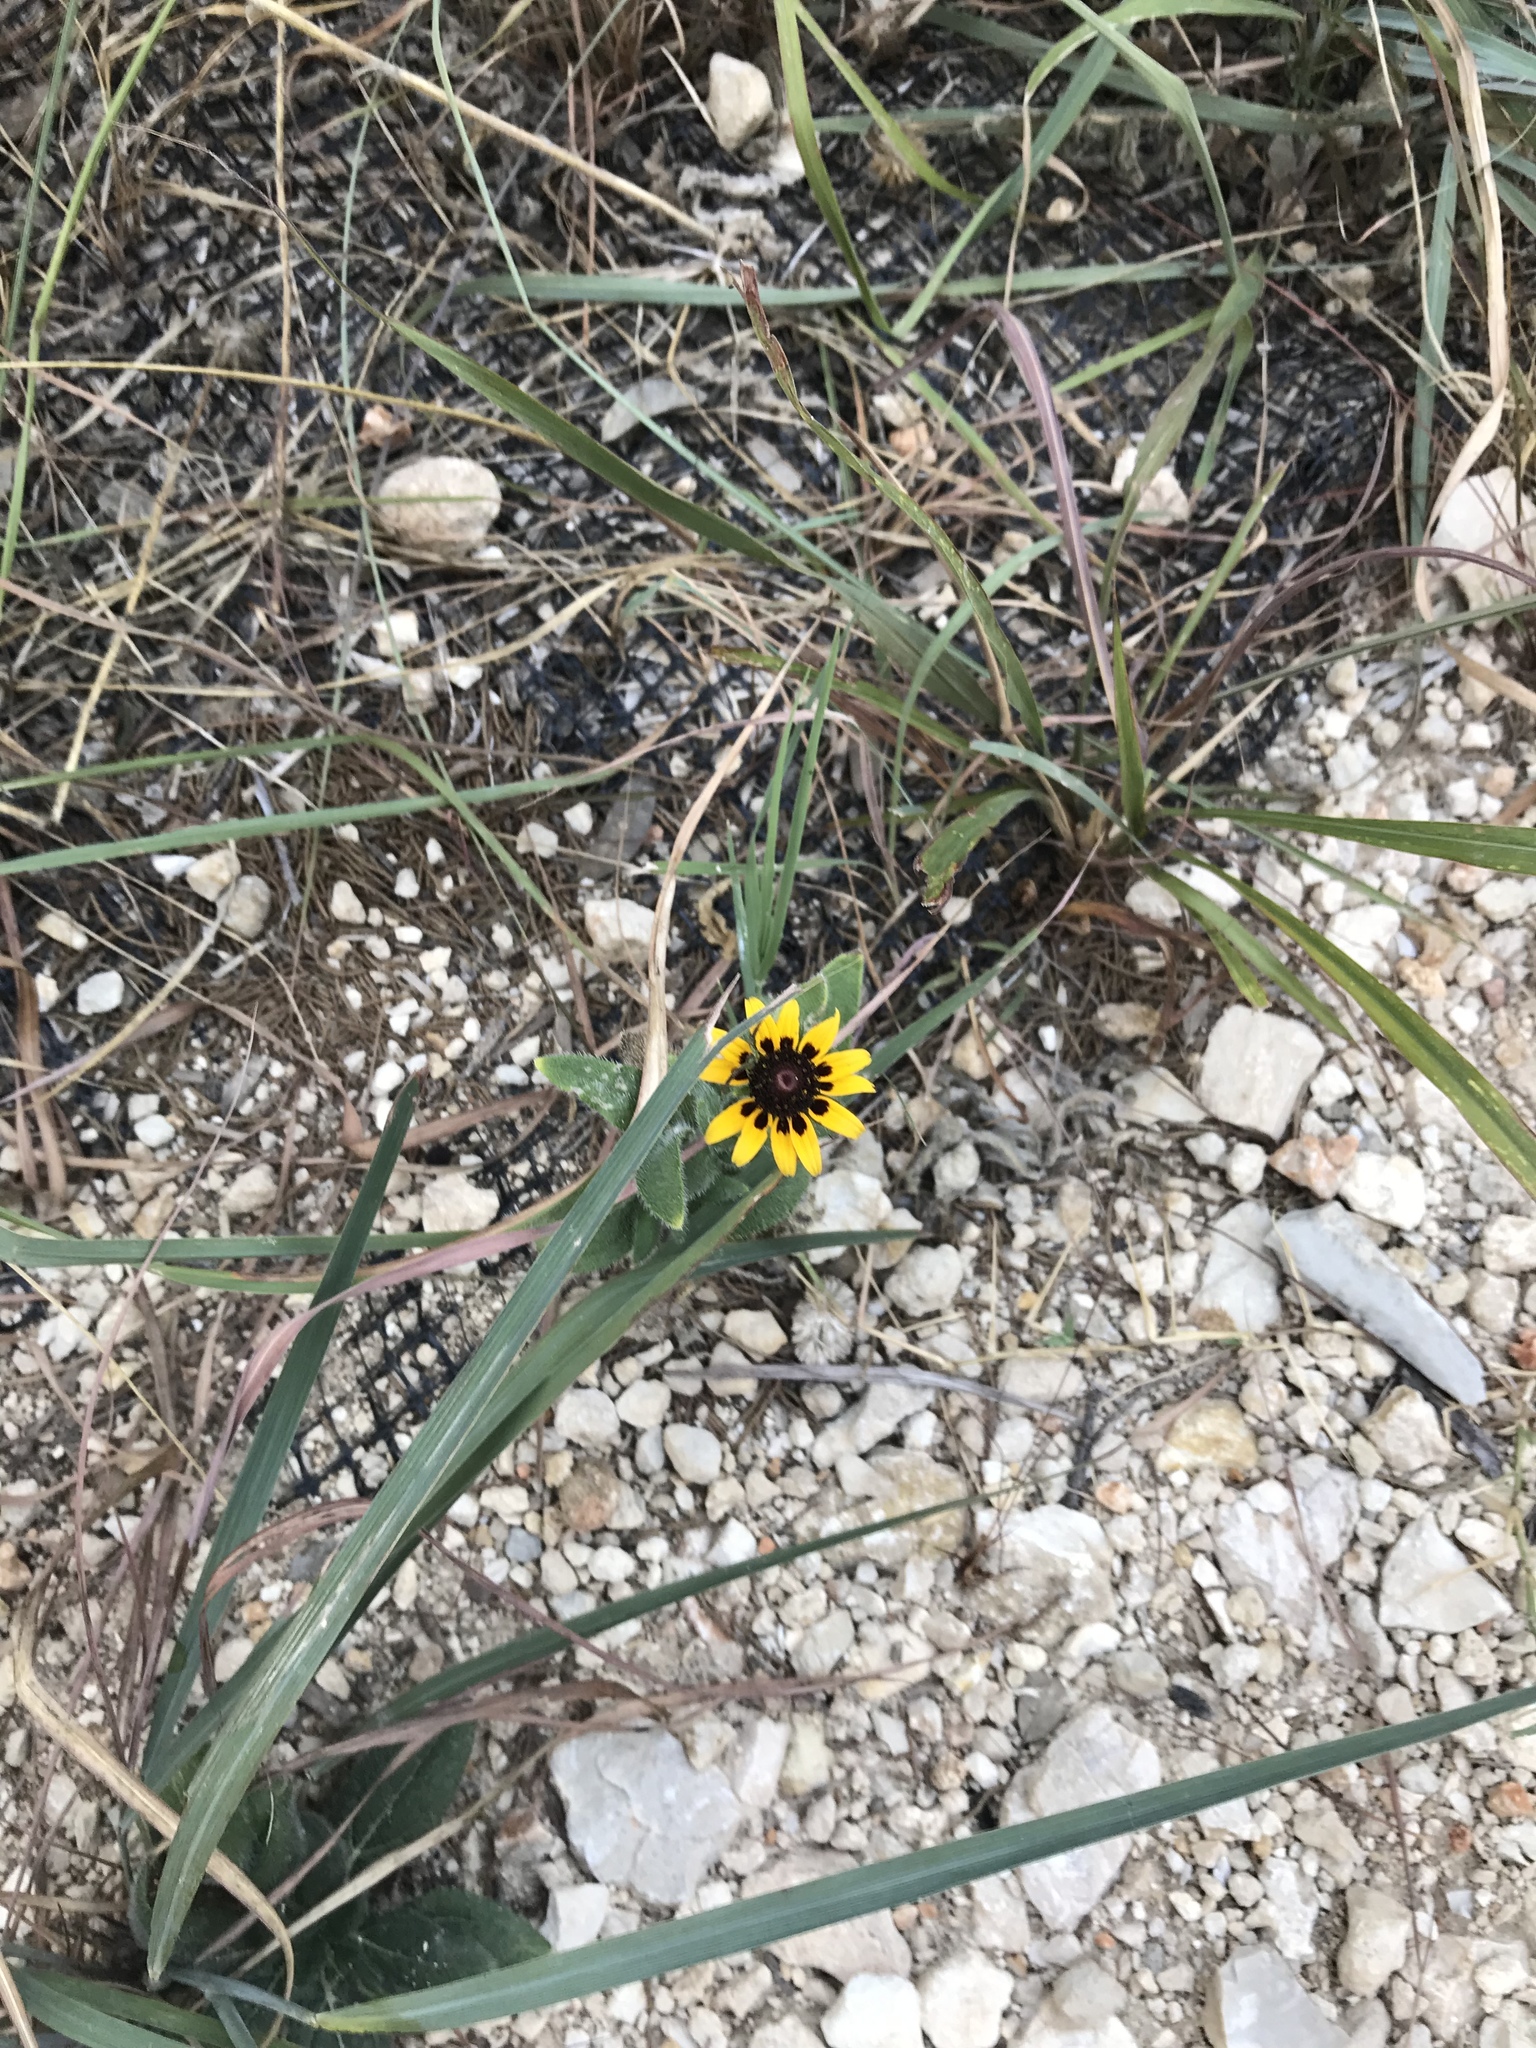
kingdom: Plantae
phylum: Tracheophyta
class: Magnoliopsida
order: Asterales
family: Asteraceae
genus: Rudbeckia
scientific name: Rudbeckia hirta
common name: Black-eyed-susan
